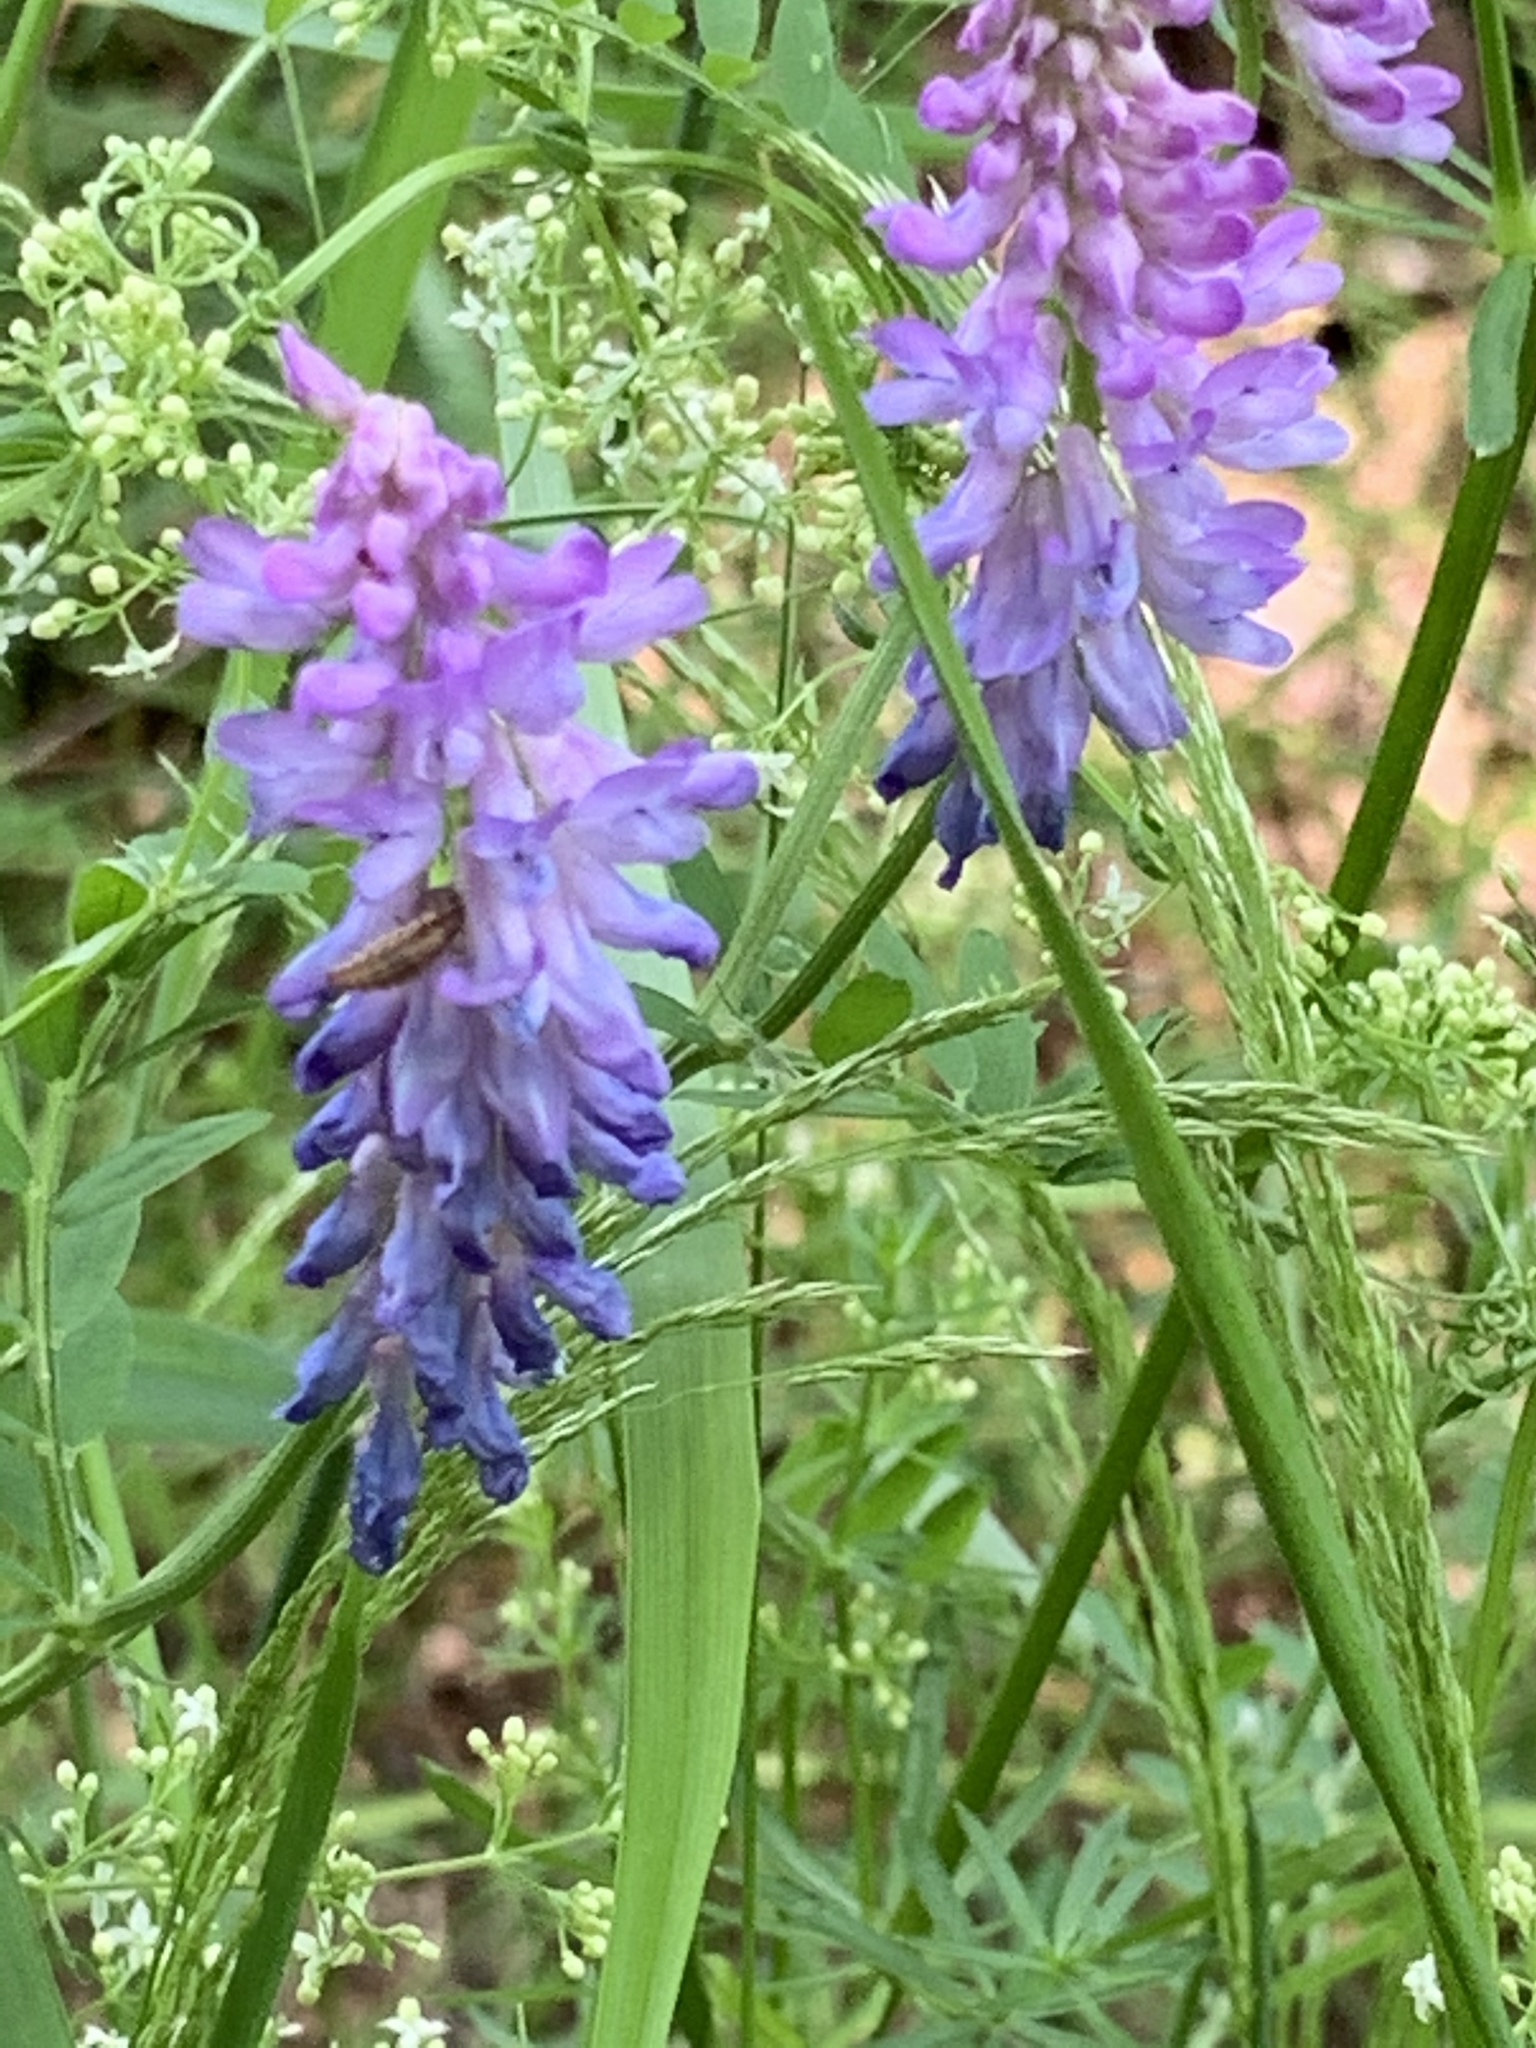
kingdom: Plantae
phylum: Tracheophyta
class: Magnoliopsida
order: Fabales
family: Fabaceae
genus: Vicia
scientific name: Vicia cracca
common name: Bird vetch
